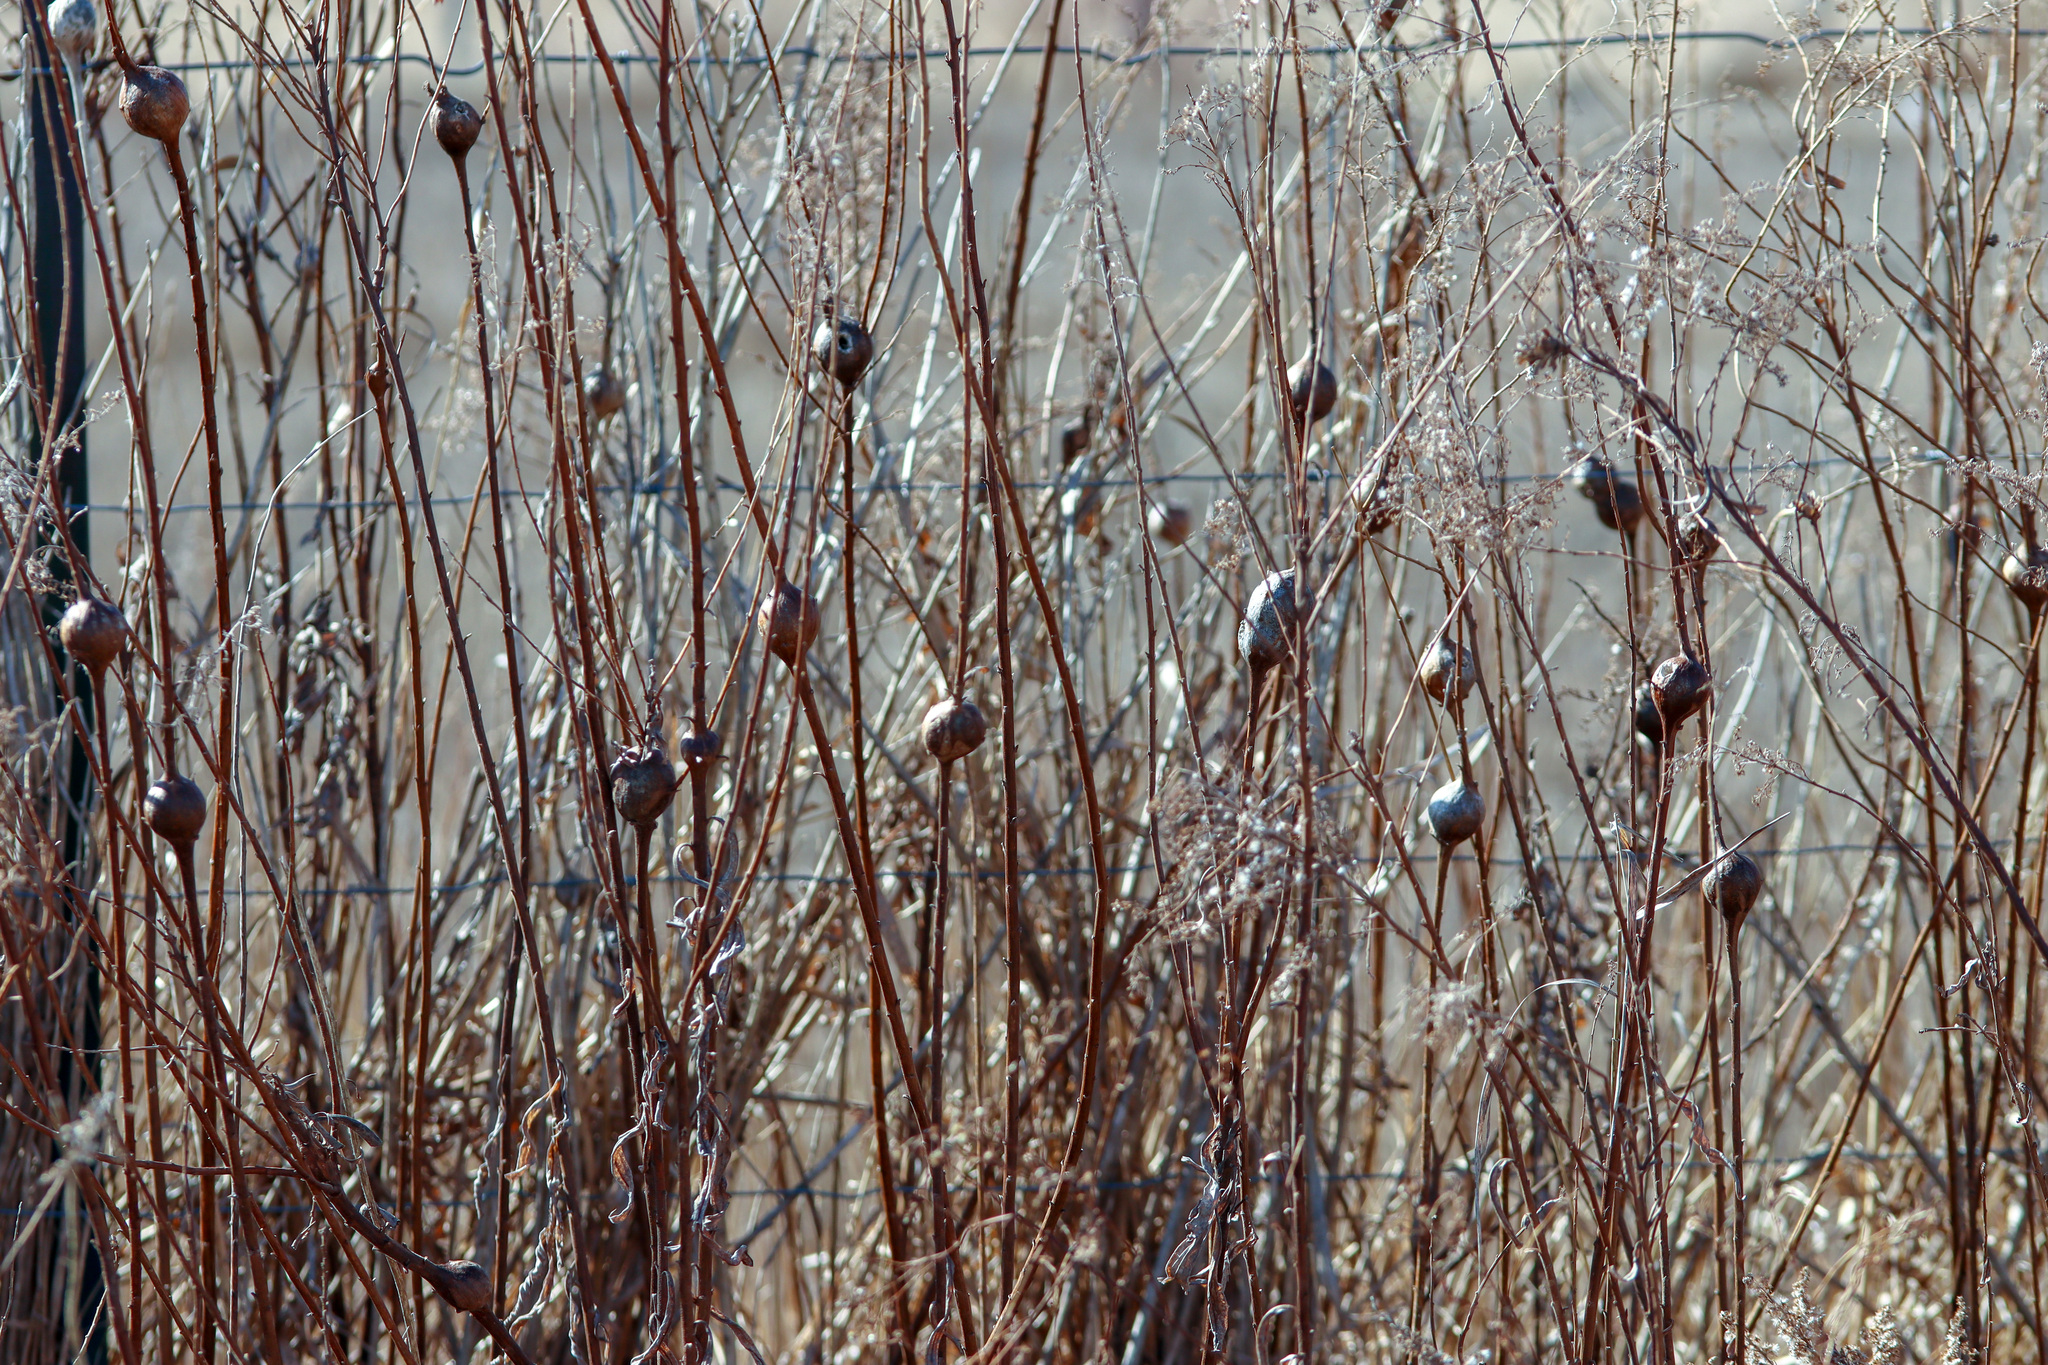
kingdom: Animalia
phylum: Arthropoda
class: Insecta
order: Diptera
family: Tephritidae
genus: Eurosta
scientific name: Eurosta solidaginis
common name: Goldenrod gall fly
